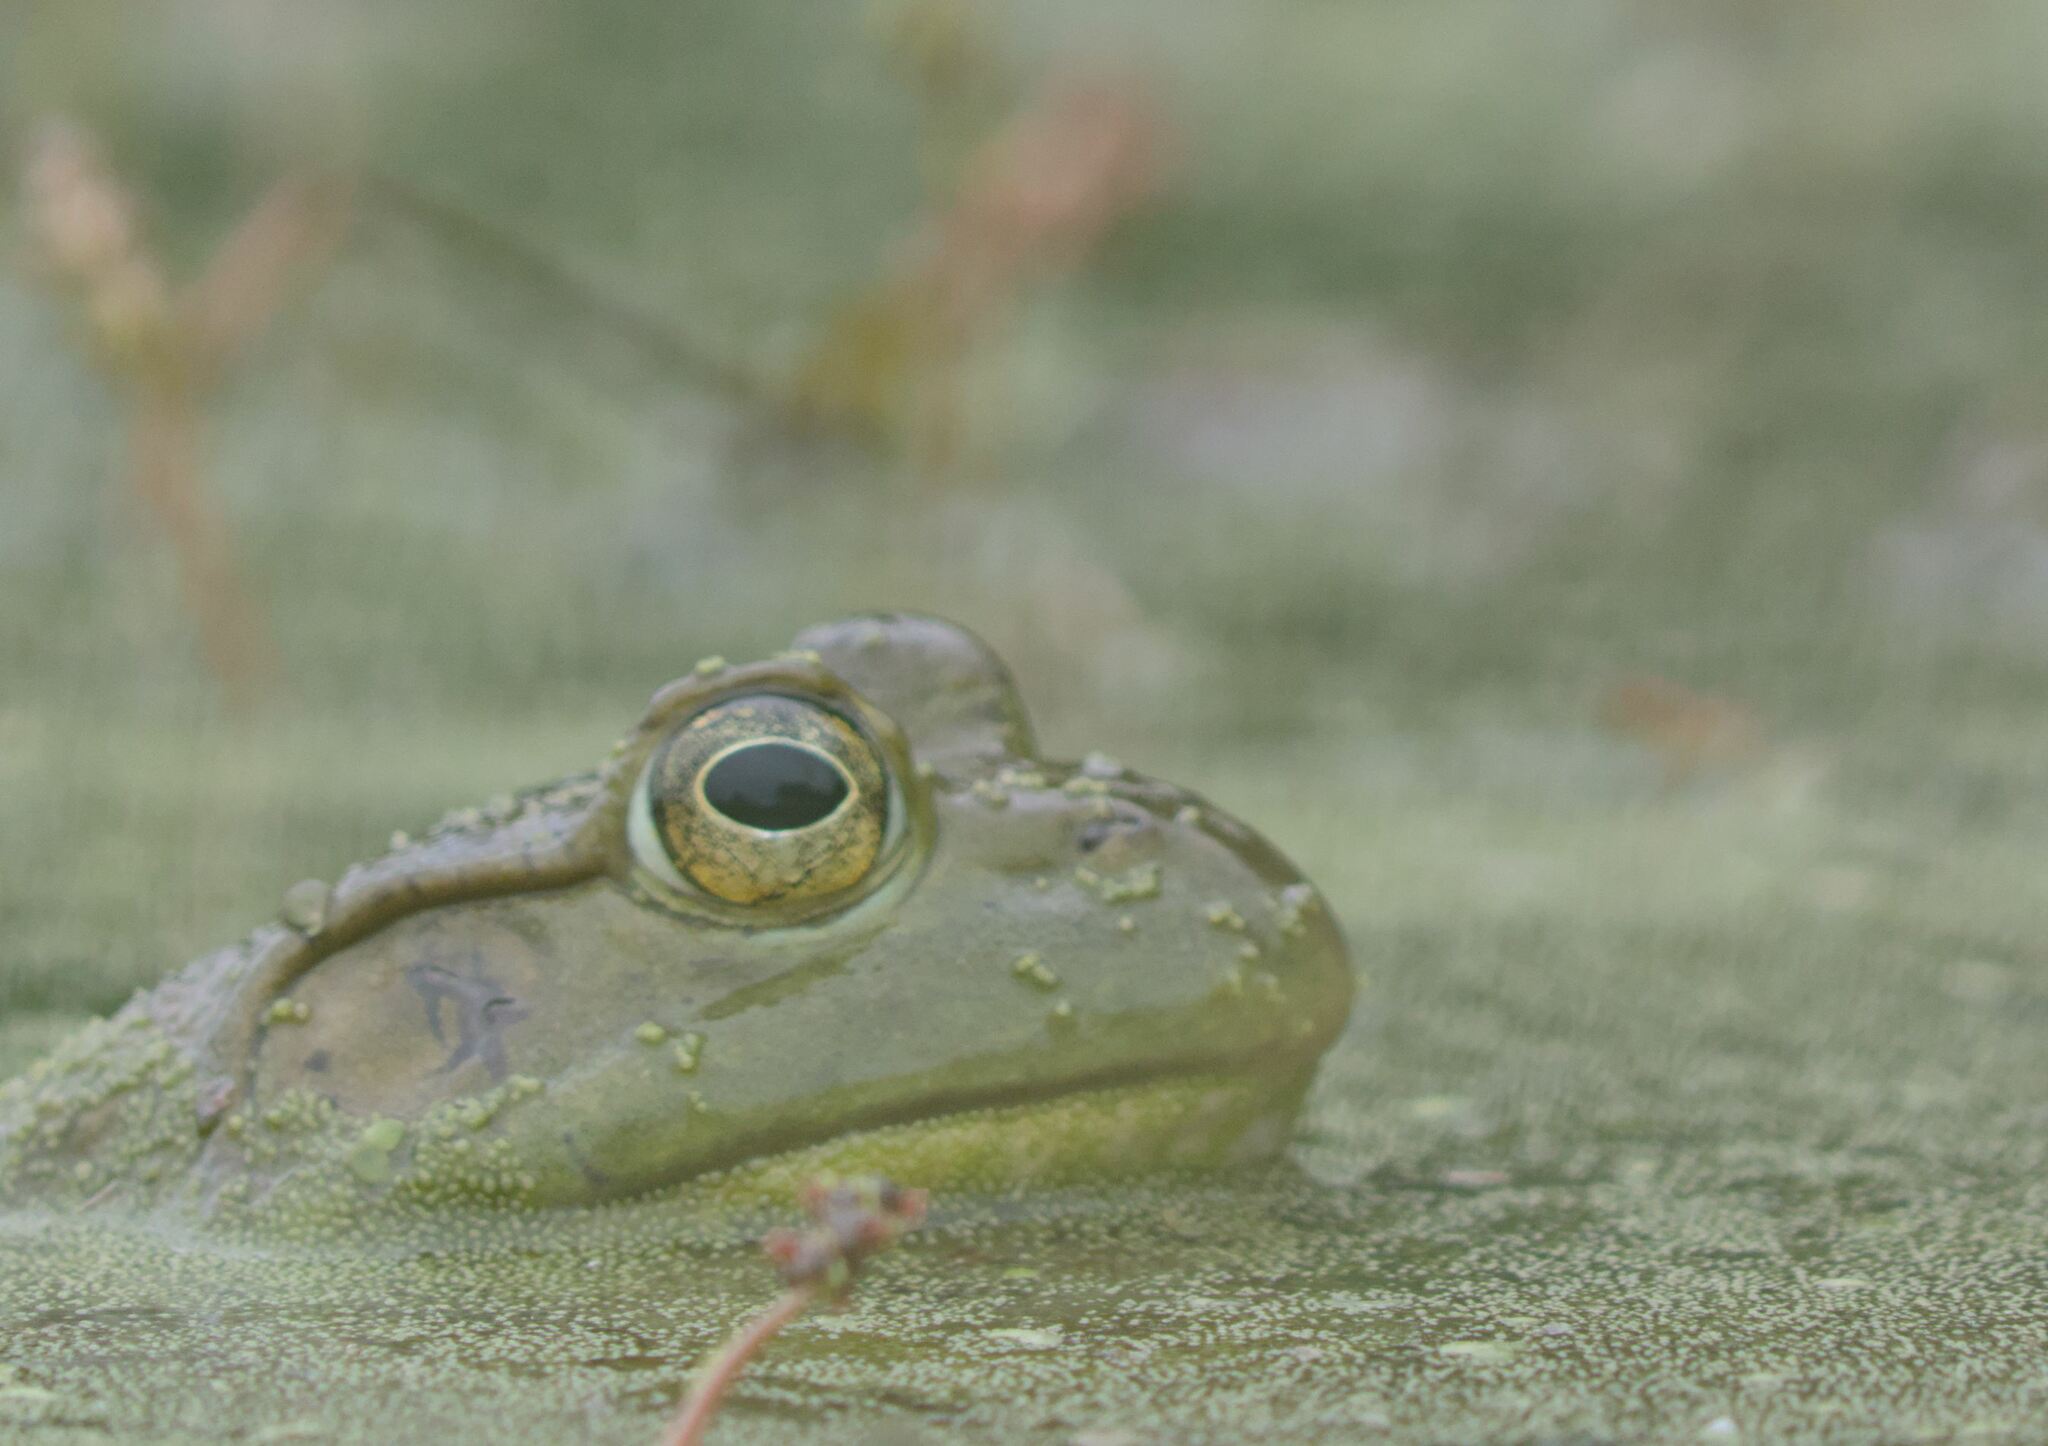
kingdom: Animalia
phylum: Chordata
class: Amphibia
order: Anura
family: Ranidae
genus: Lithobates
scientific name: Lithobates catesbeianus
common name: American bullfrog
